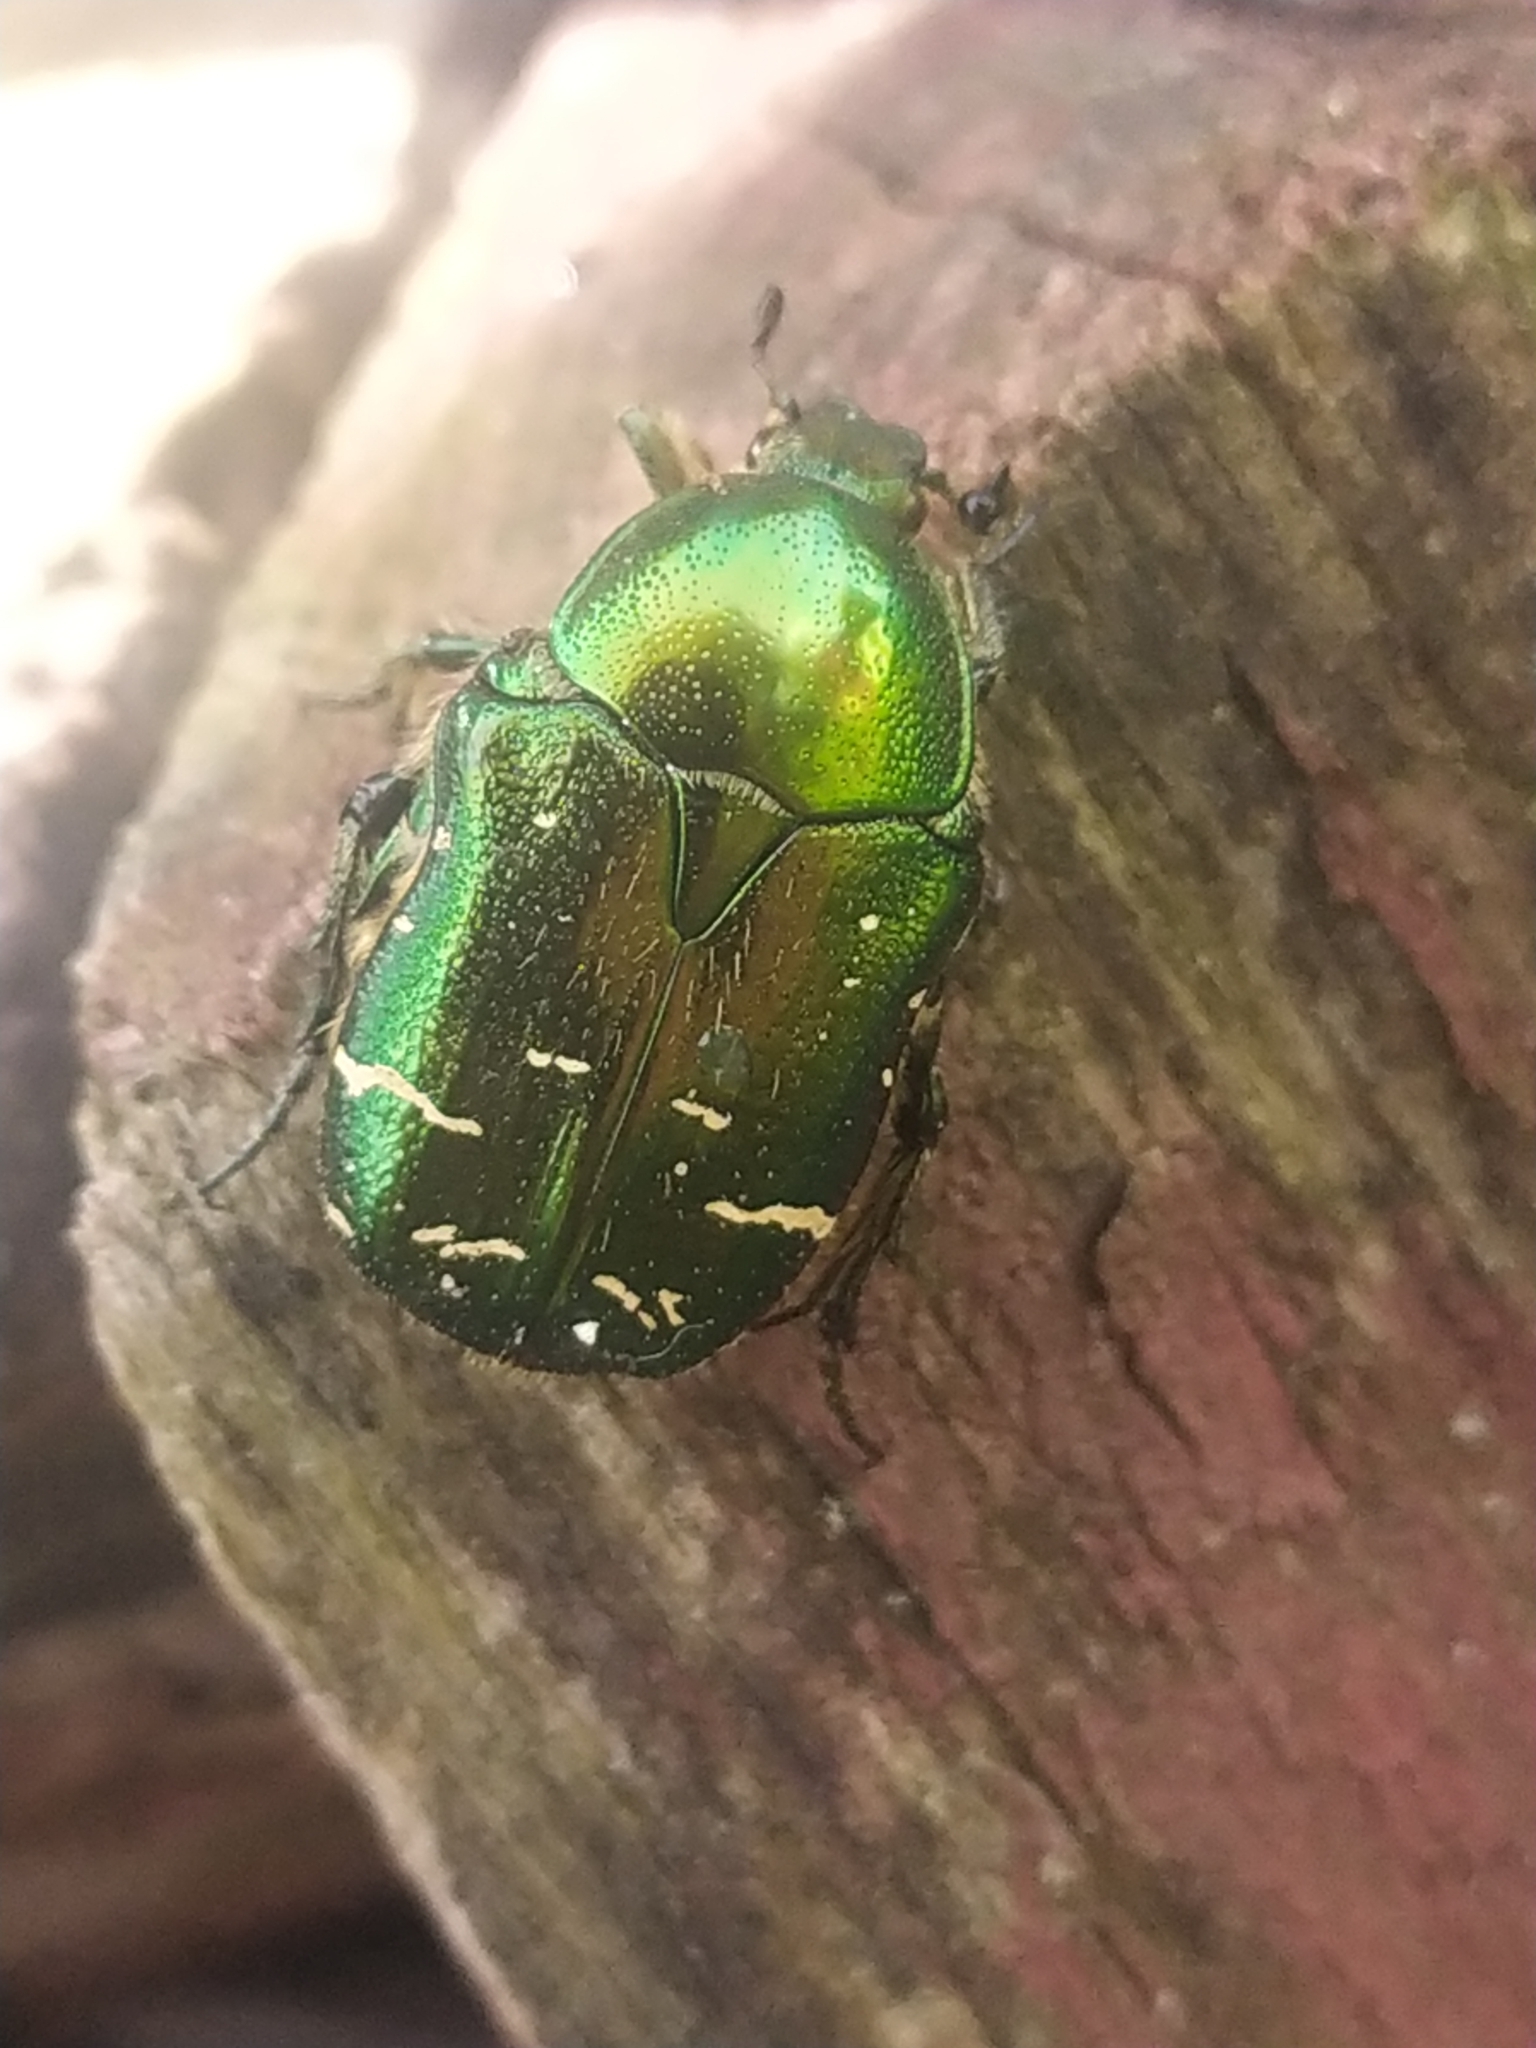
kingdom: Animalia
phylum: Arthropoda
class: Insecta
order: Coleoptera
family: Scarabaeidae
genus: Cetonia
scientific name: Cetonia aurata
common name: Rose chafer
